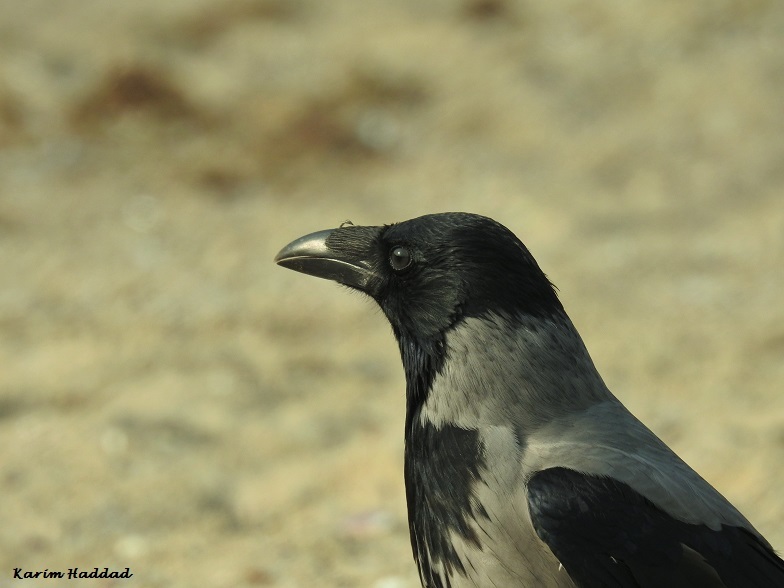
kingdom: Animalia
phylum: Chordata
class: Aves
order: Passeriformes
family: Corvidae
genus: Corvus
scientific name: Corvus cornix
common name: Hooded crow
